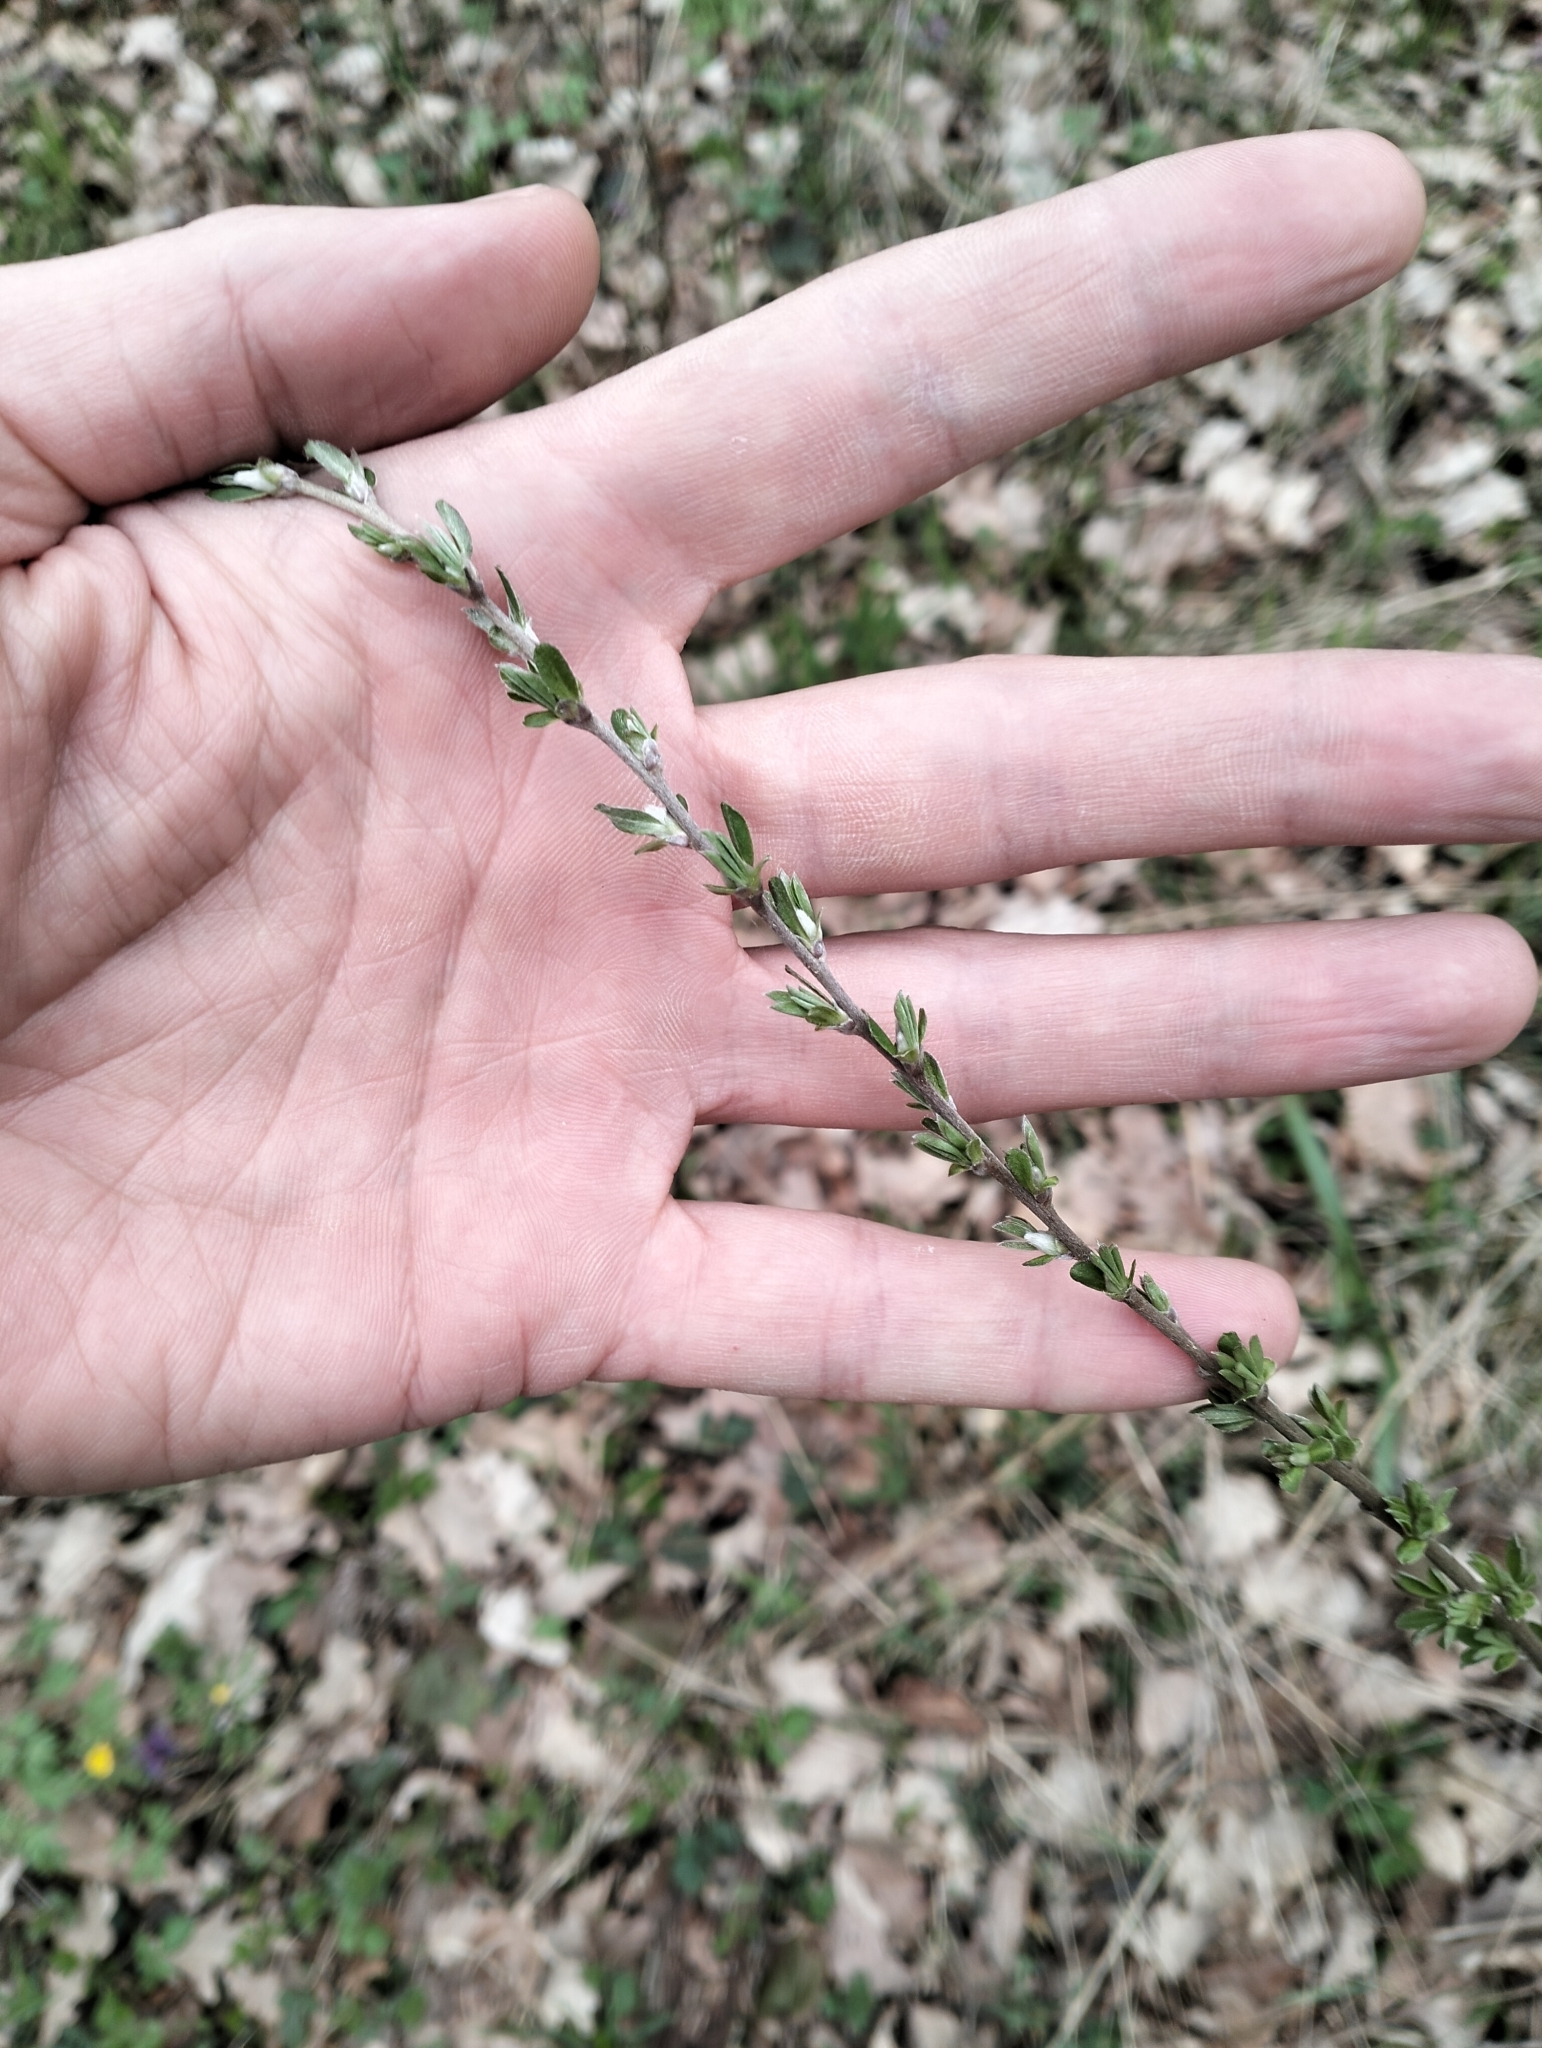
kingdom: Plantae
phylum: Tracheophyta
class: Magnoliopsida
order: Fabales
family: Fabaceae
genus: Chamaecytisus
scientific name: Chamaecytisus ruthenicus
